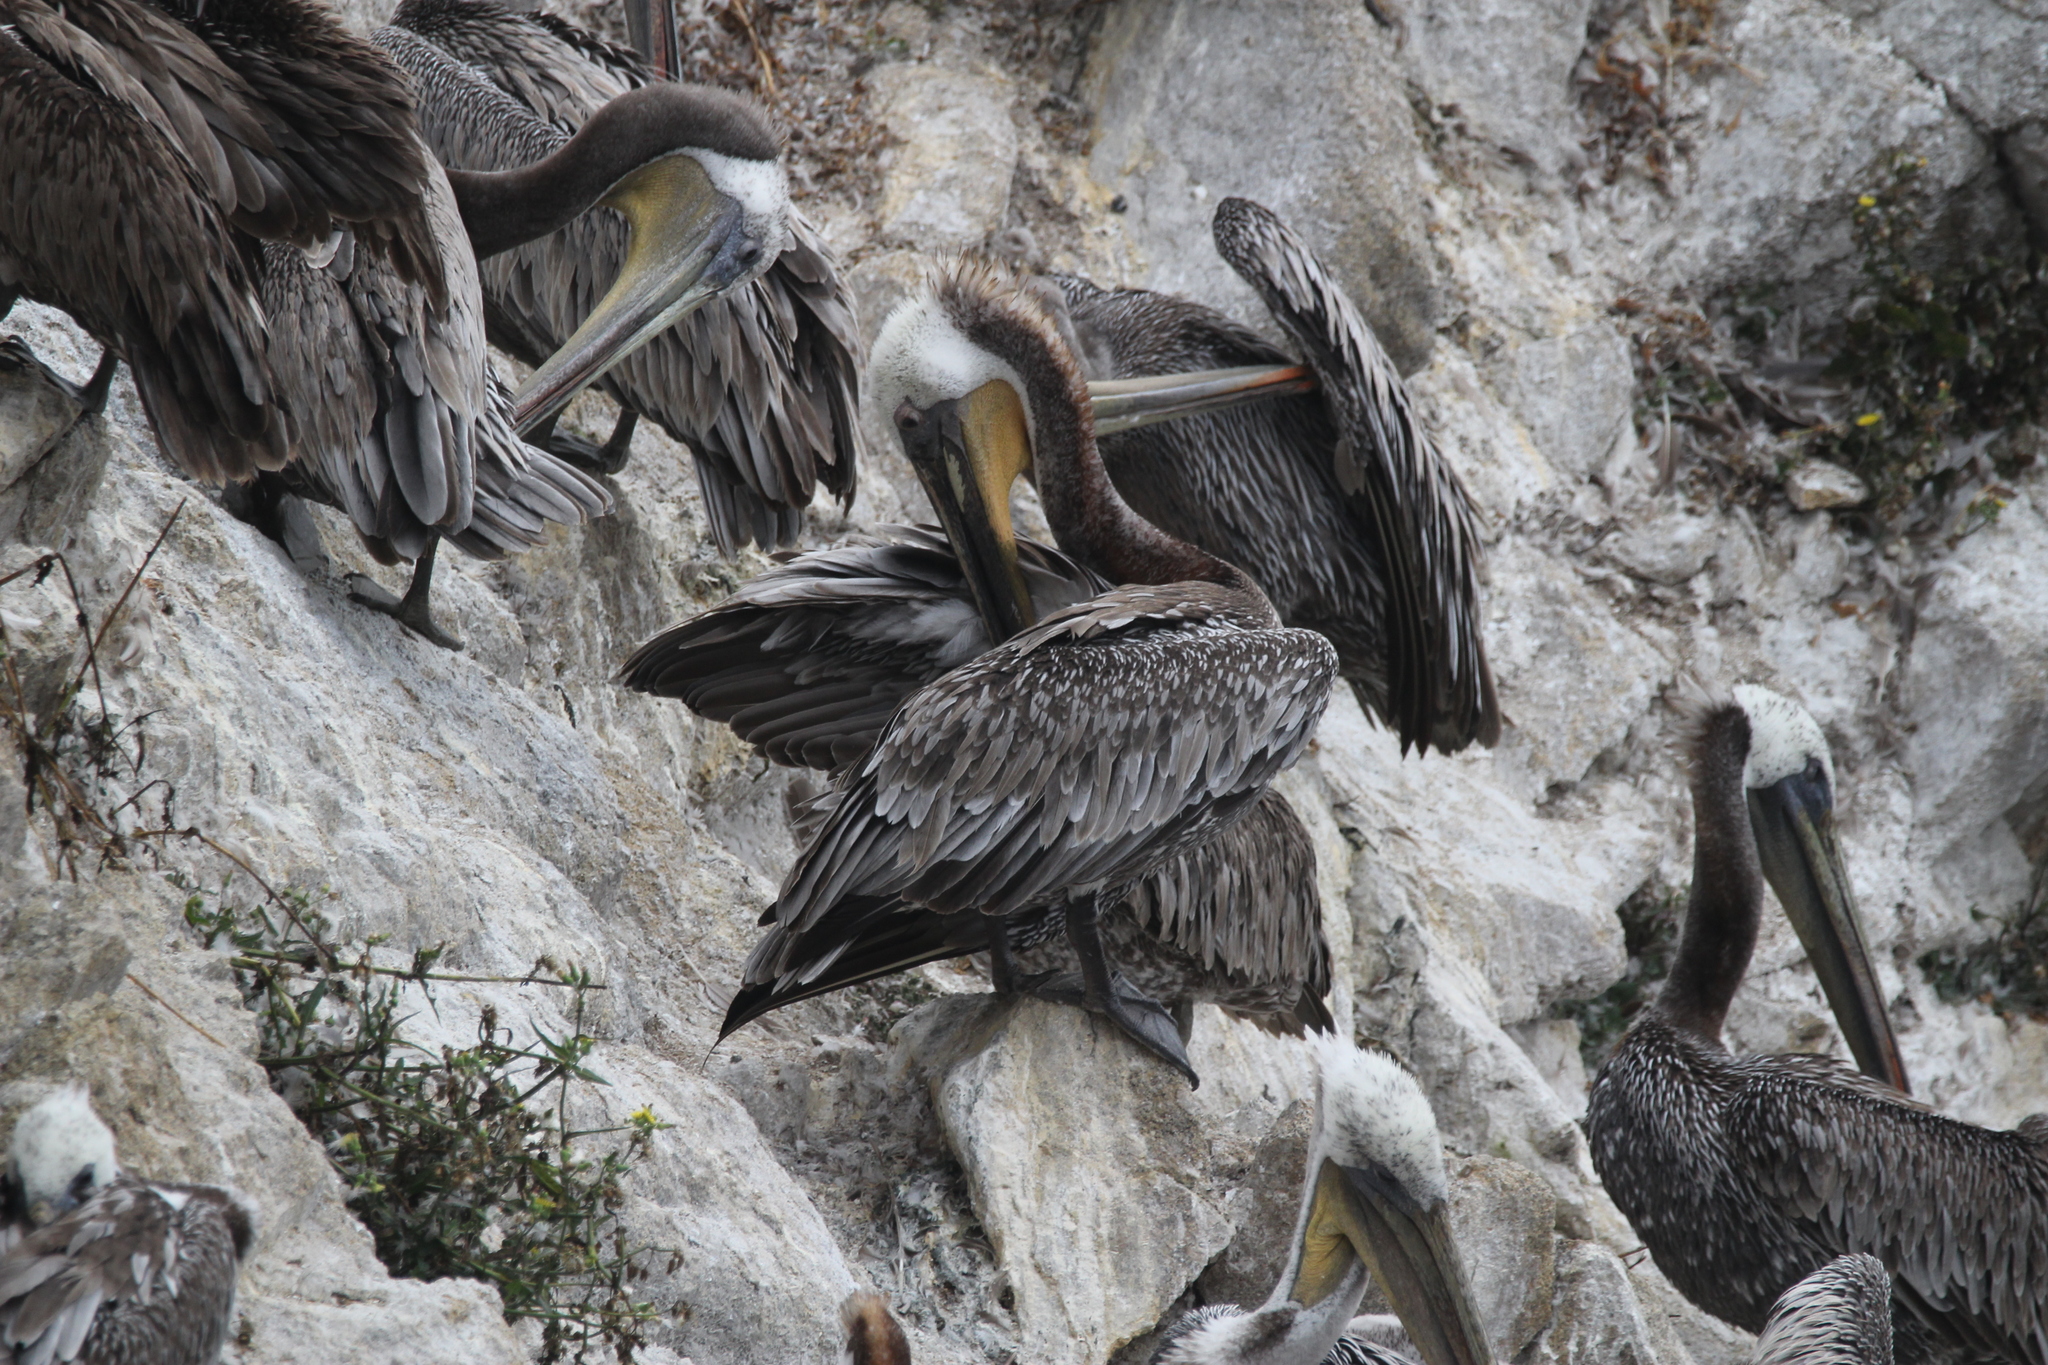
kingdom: Animalia
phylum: Chordata
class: Aves
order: Pelecaniformes
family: Pelecanidae
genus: Pelecanus
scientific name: Pelecanus occidentalis
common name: Brown pelican
